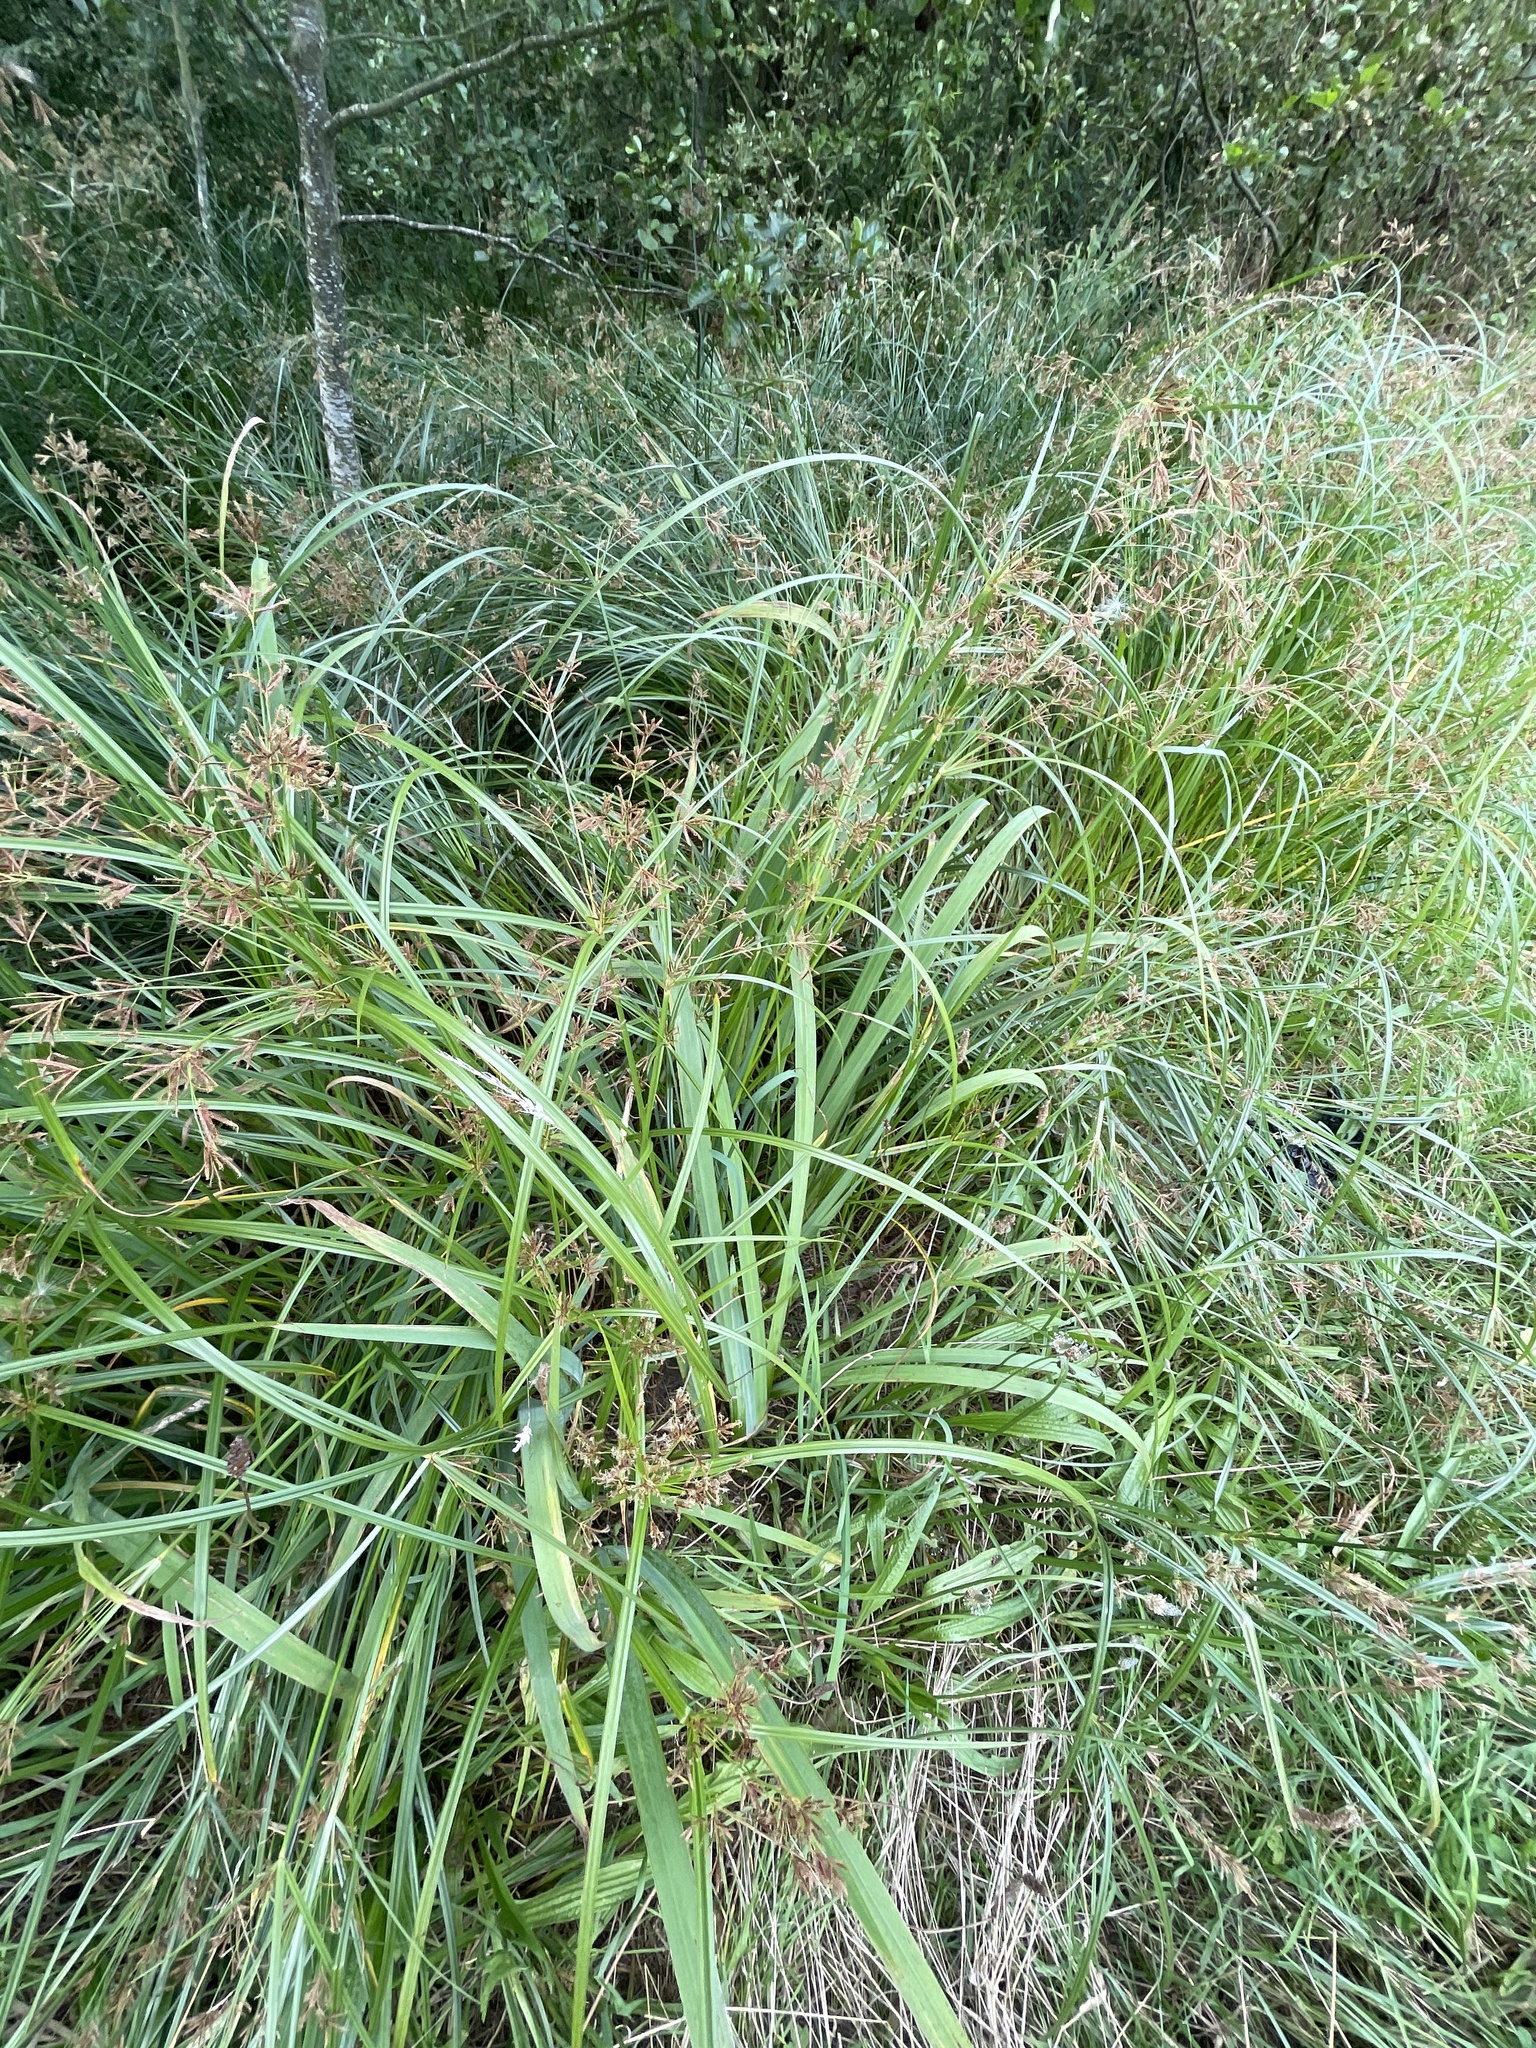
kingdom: Plantae
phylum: Tracheophyta
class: Liliopsida
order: Poales
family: Cyperaceae
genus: Cyperus
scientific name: Cyperus longus
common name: Galingale
